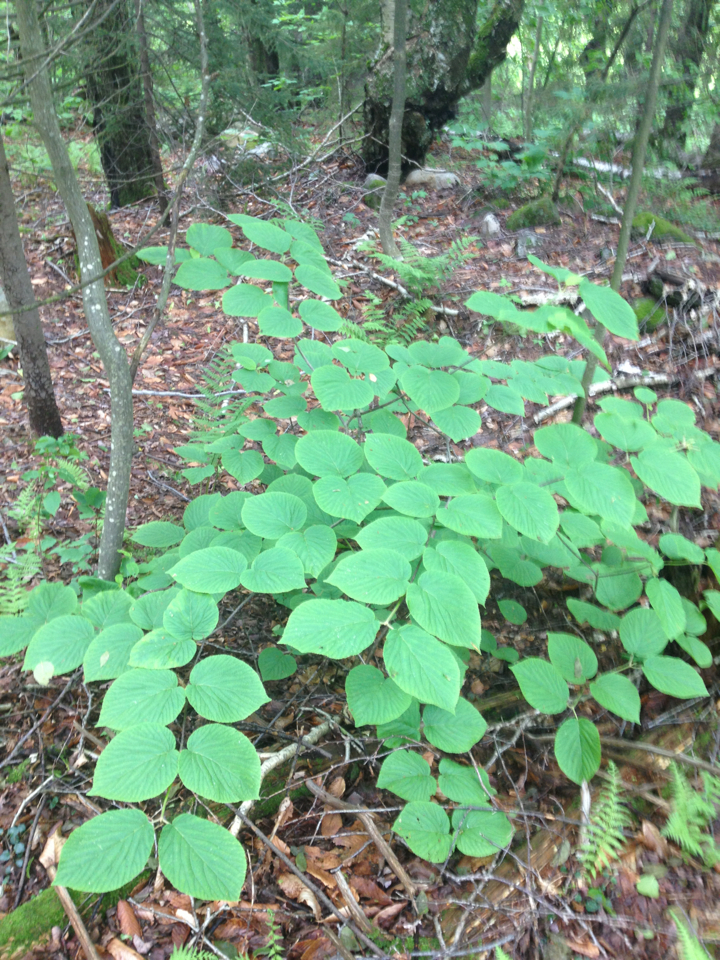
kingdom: Plantae
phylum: Tracheophyta
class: Magnoliopsida
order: Dipsacales
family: Viburnaceae
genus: Viburnum
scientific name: Viburnum lantanoides
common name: Hobblebush
